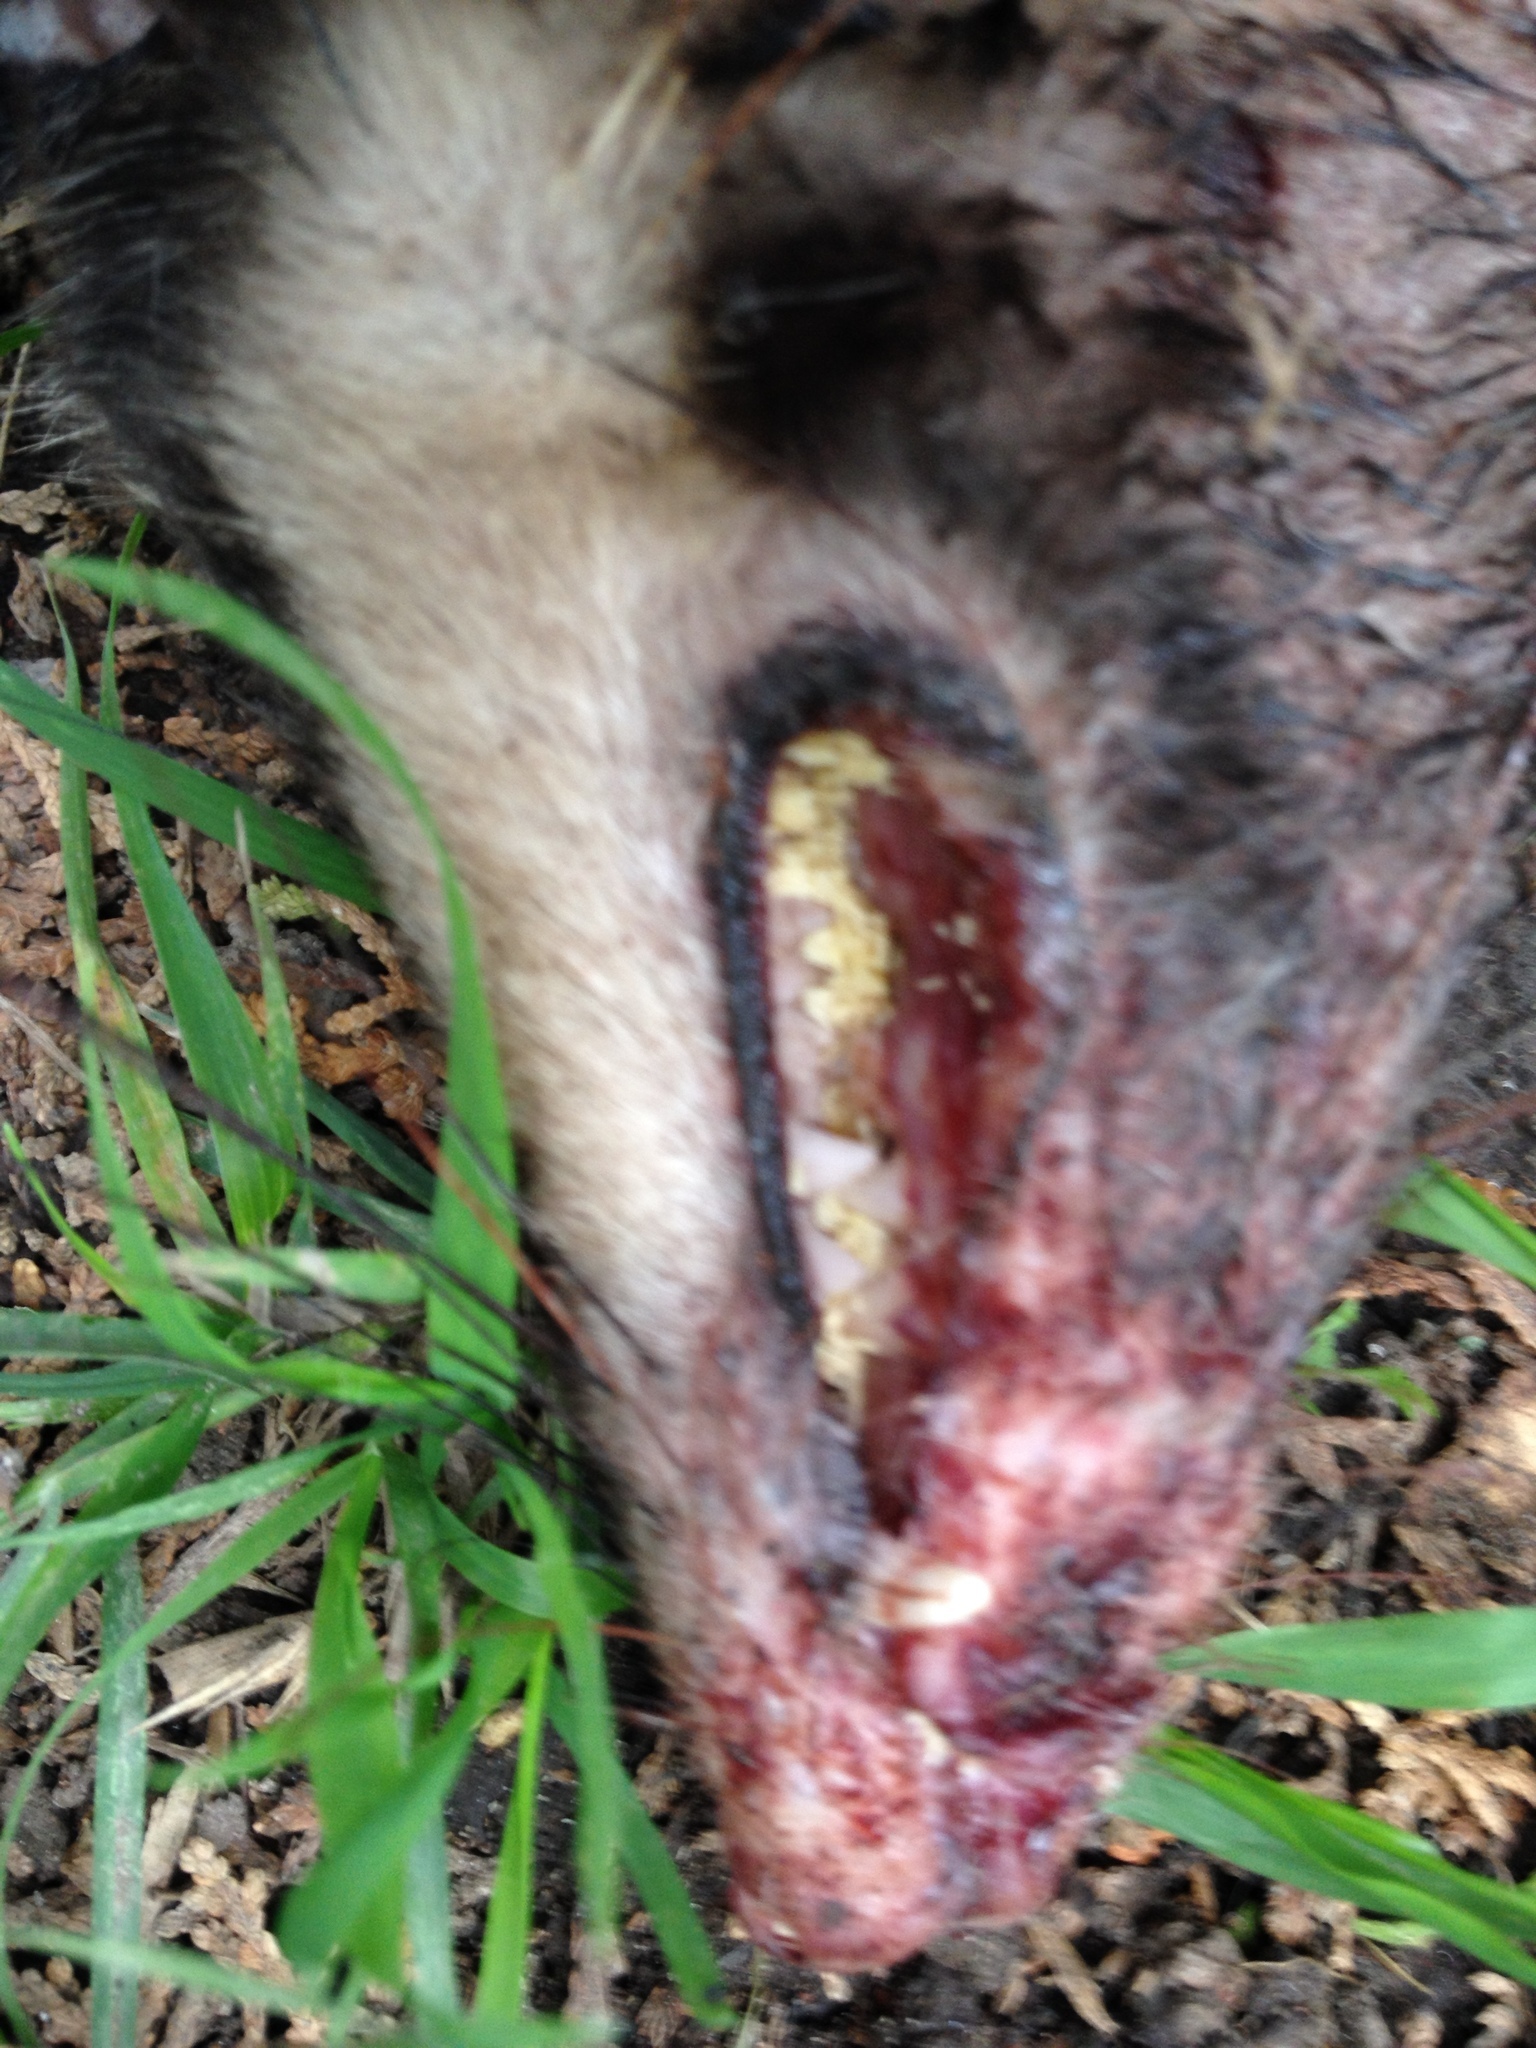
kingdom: Animalia
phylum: Chordata
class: Mammalia
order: Didelphimorphia
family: Didelphidae
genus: Didelphis
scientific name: Didelphis virginiana
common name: Virginia opossum
